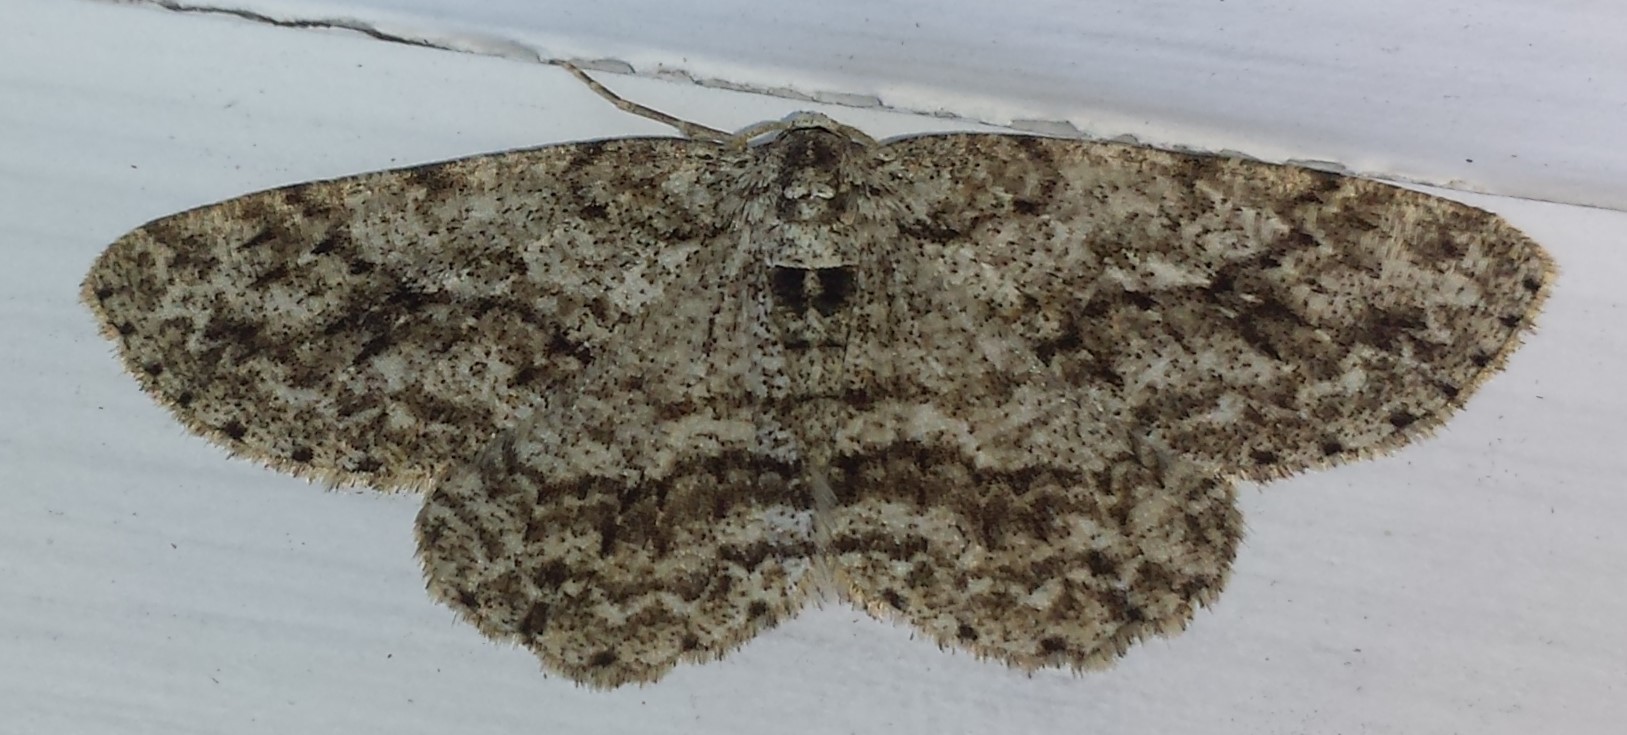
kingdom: Animalia
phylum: Arthropoda
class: Insecta
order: Lepidoptera
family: Geometridae
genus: Ectropis
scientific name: Ectropis crepuscularia
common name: Engrailed
